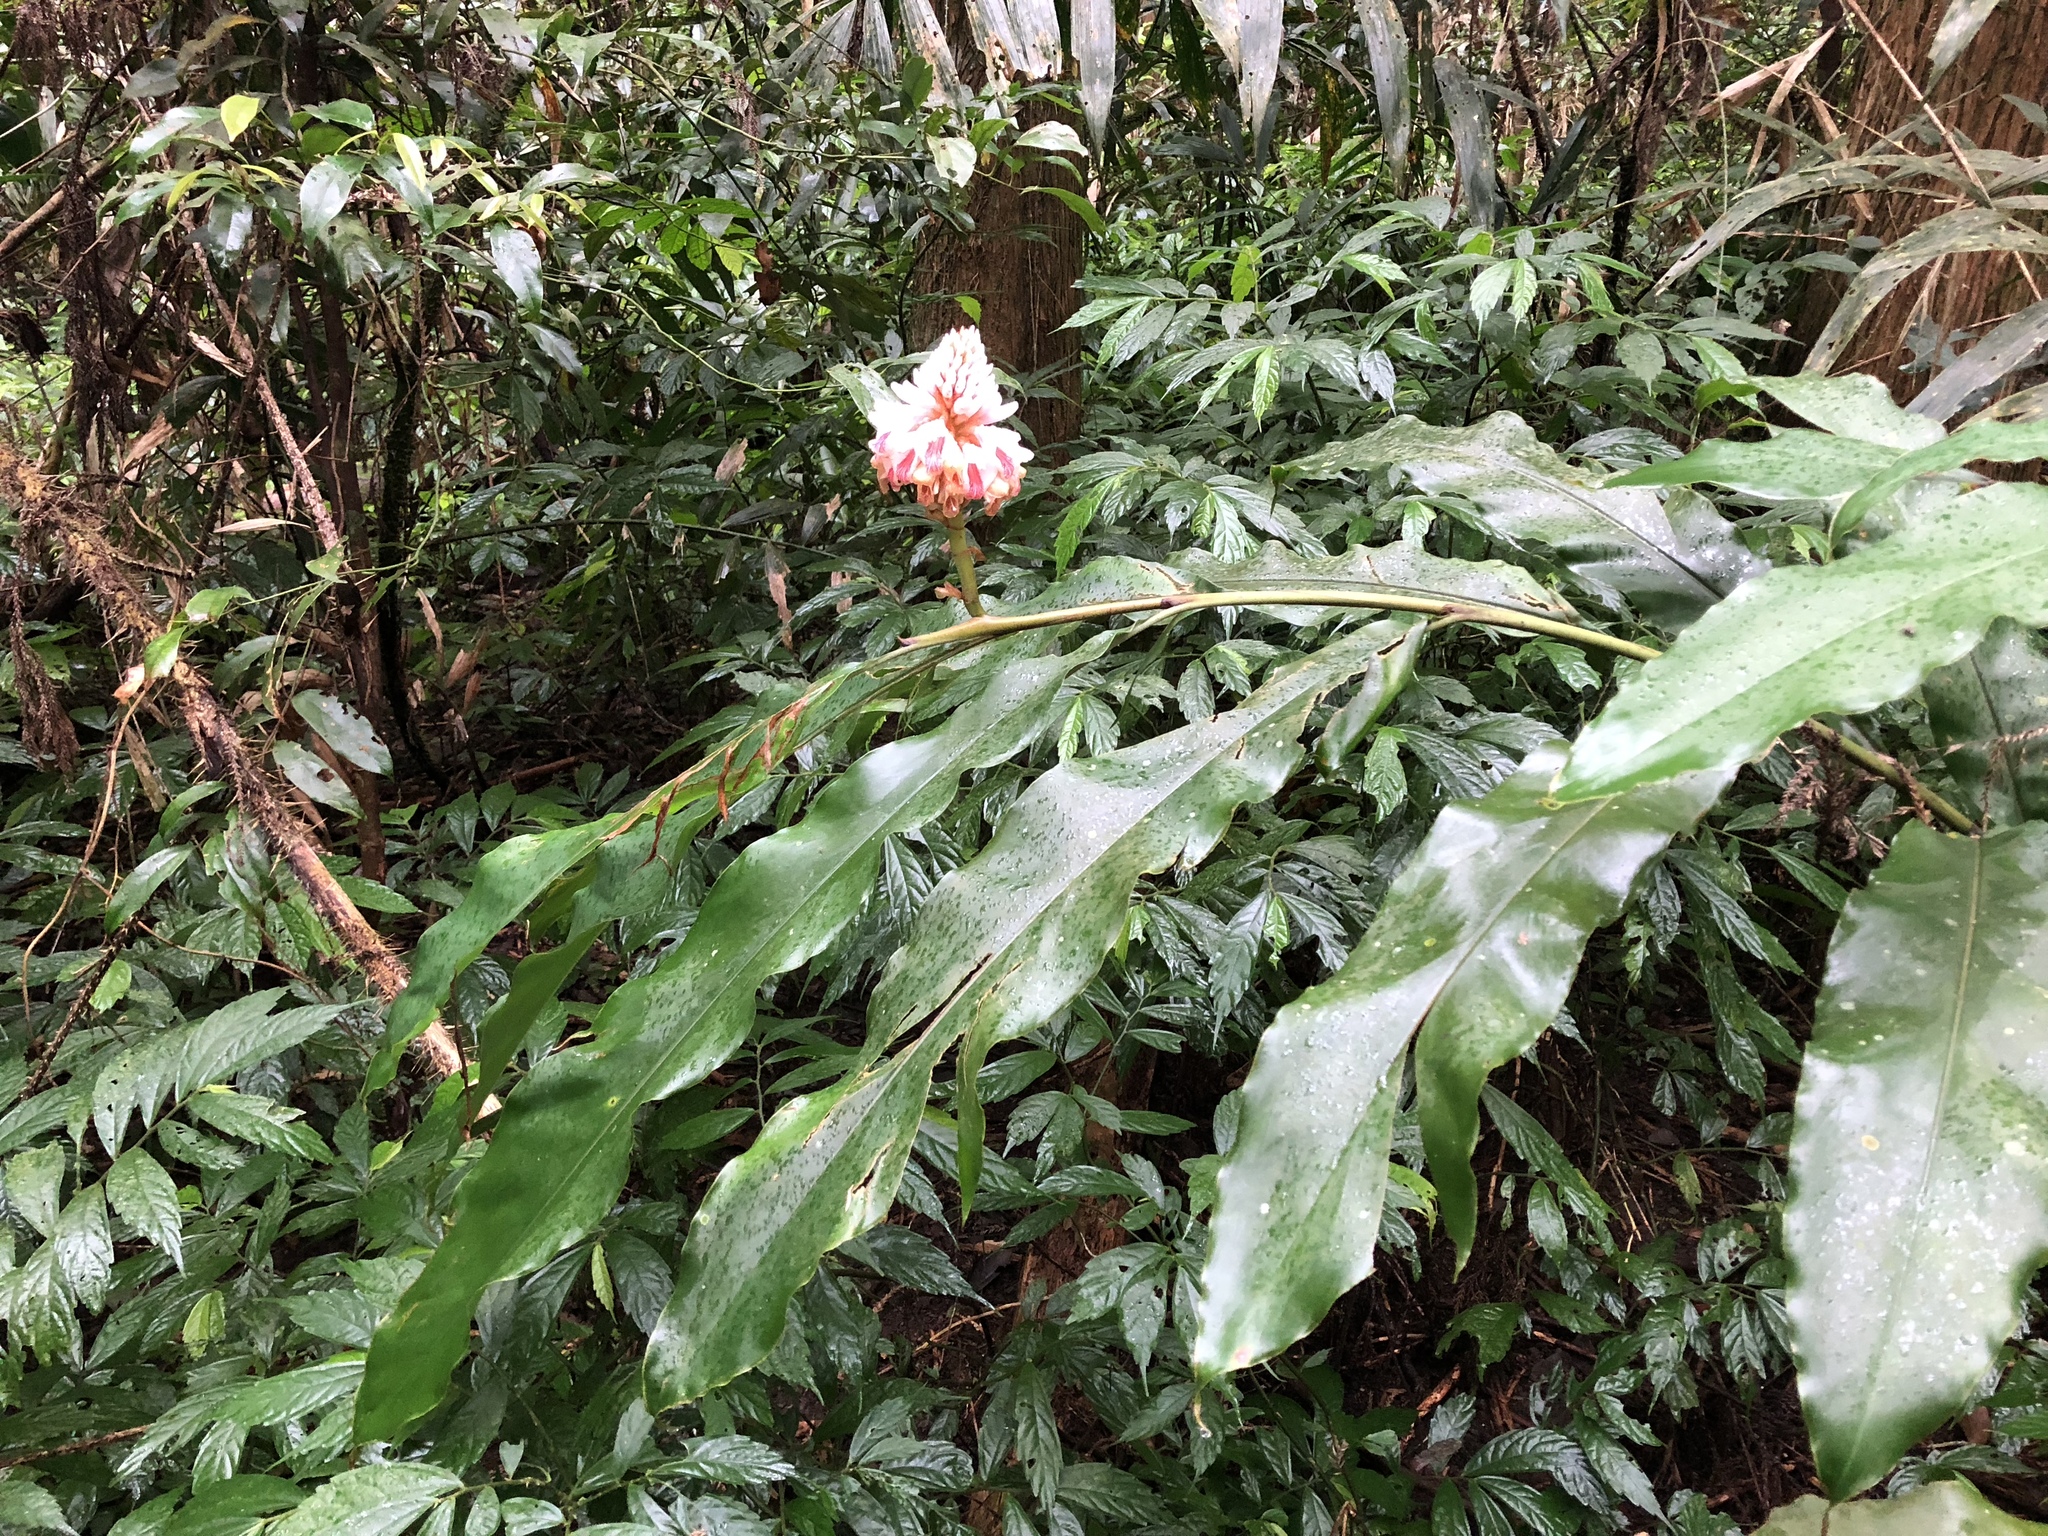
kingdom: Plantae
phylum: Tracheophyta
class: Liliopsida
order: Zingiberales
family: Zingiberaceae
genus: Alpinia
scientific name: Alpinia shimadae
